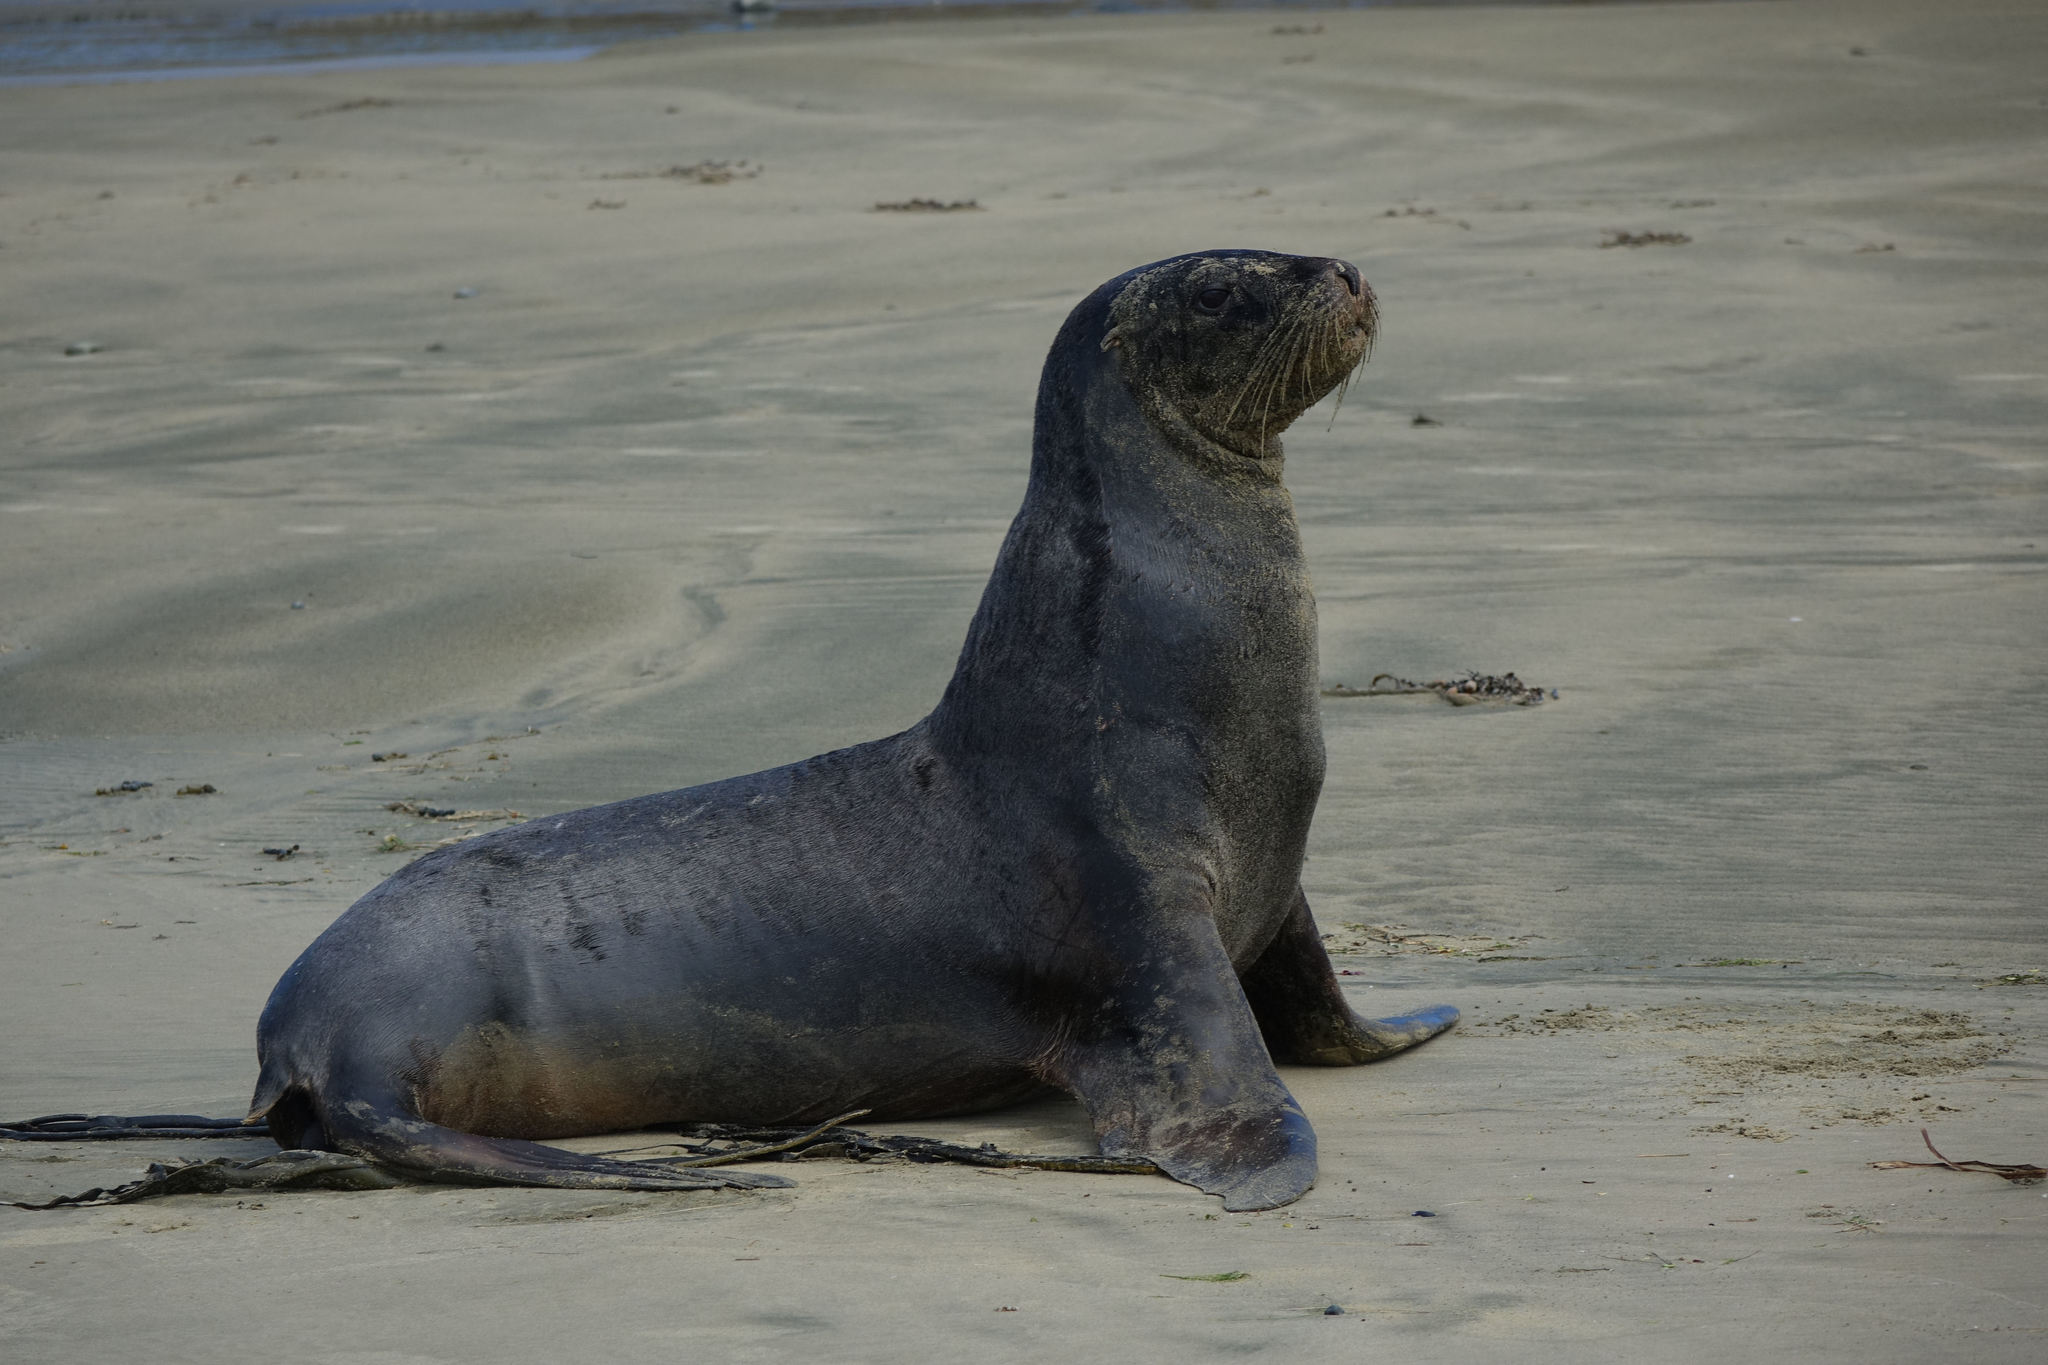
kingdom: Animalia
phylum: Chordata
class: Mammalia
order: Carnivora
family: Otariidae
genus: Phocarctos
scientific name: Phocarctos hookeri
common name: New zealand sea lion
